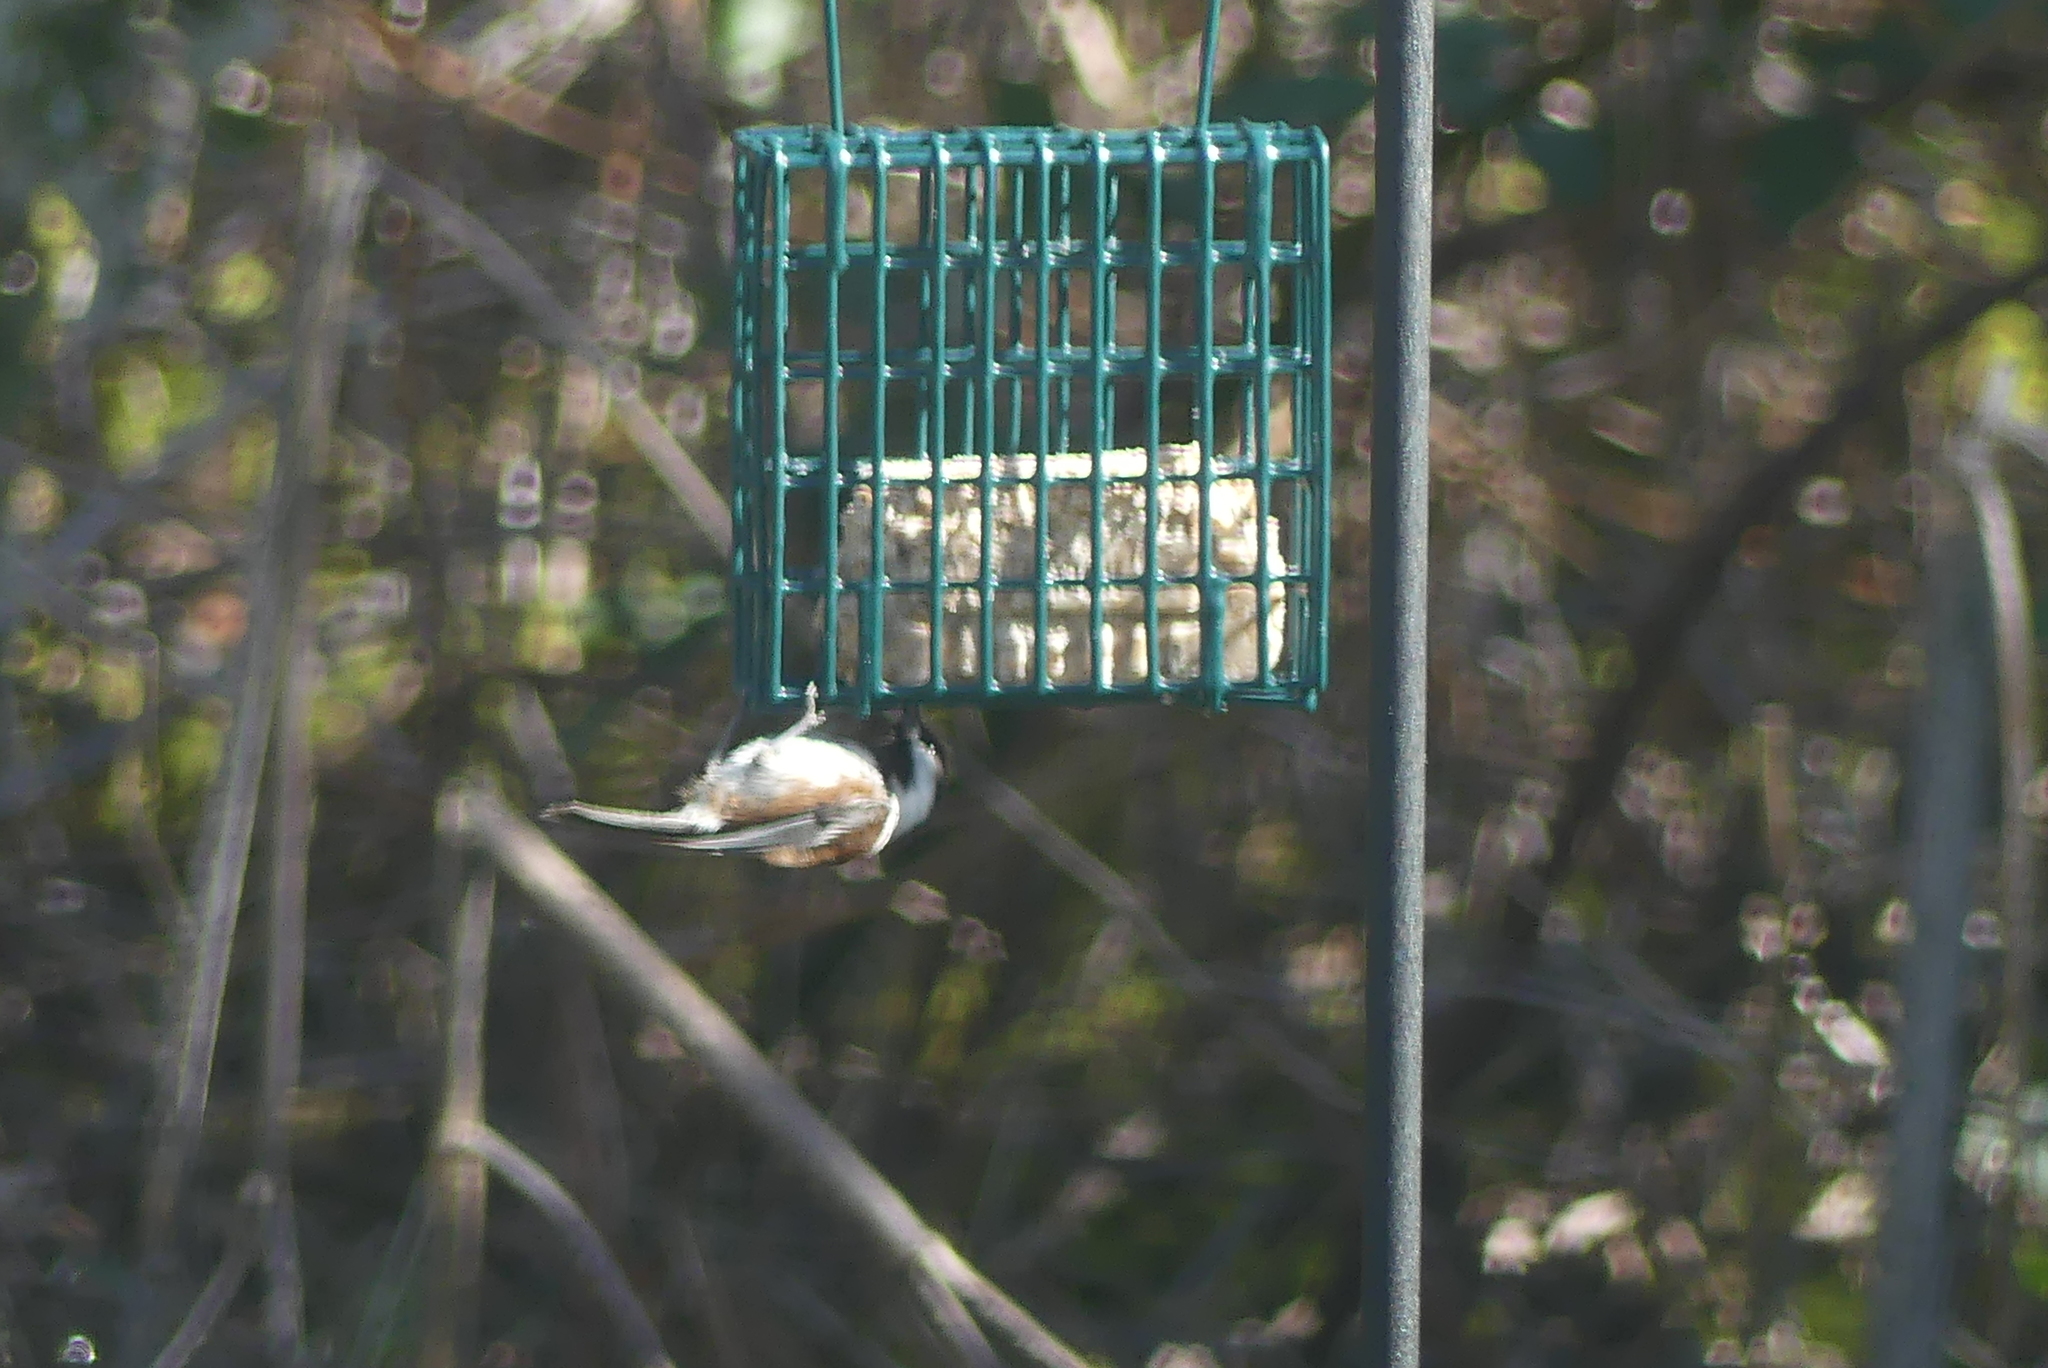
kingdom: Animalia
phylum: Chordata
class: Aves
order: Passeriformes
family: Paridae
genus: Poecile
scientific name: Poecile rufescens
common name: Chestnut-backed chickadee
